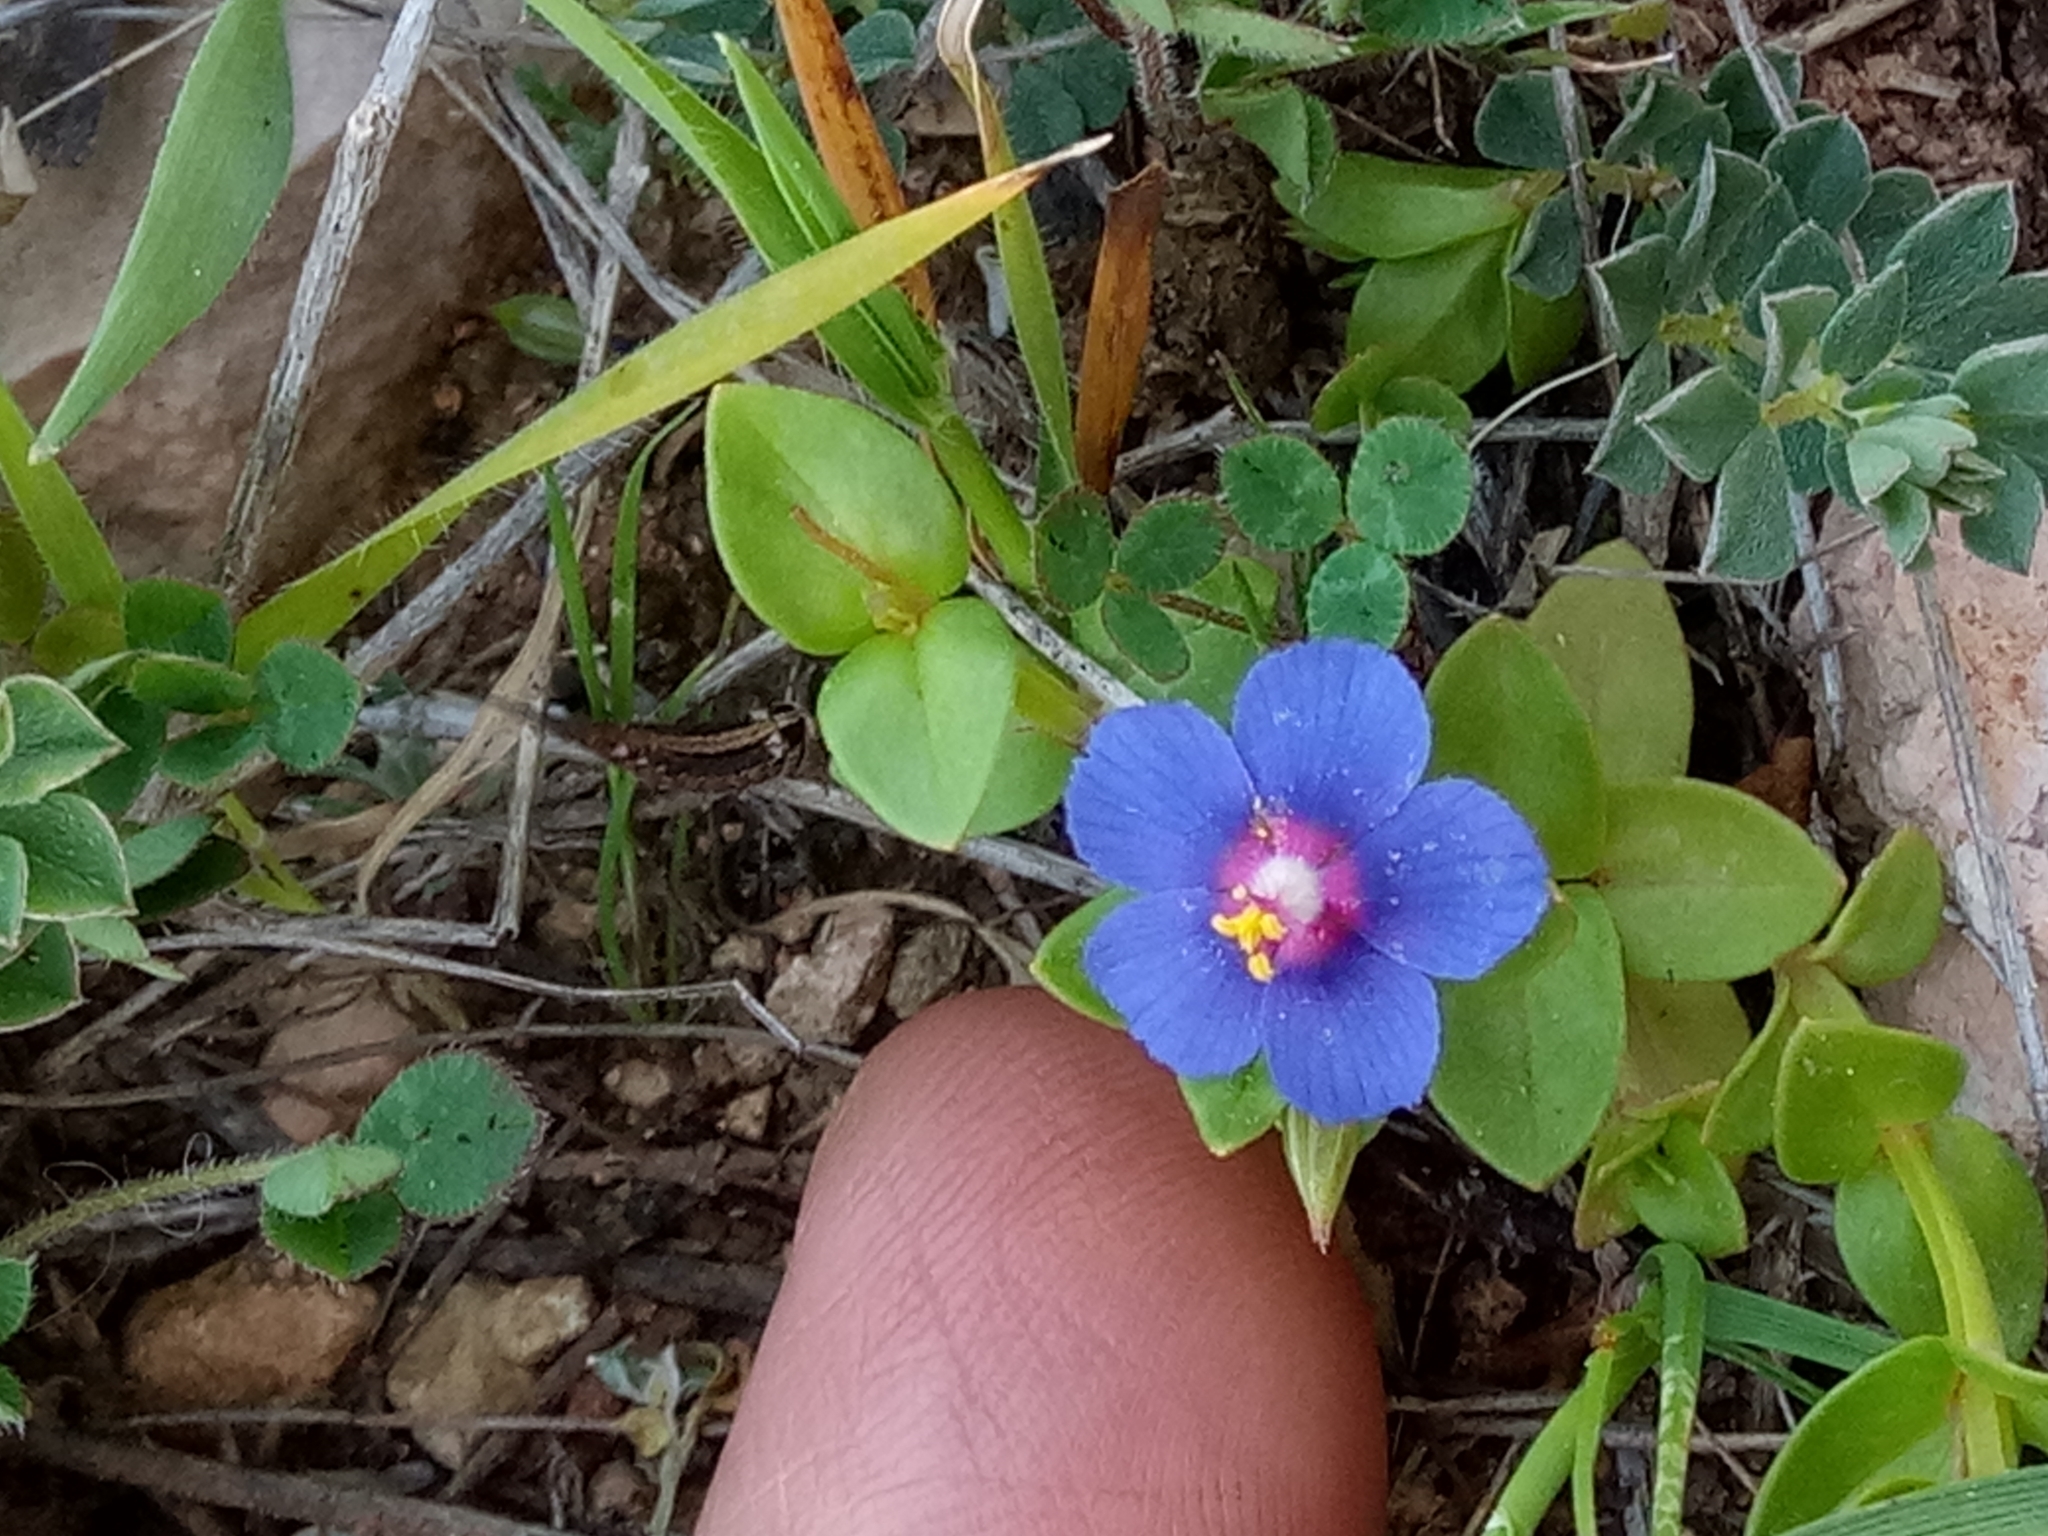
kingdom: Plantae
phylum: Tracheophyta
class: Magnoliopsida
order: Ericales
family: Primulaceae
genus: Lysimachia
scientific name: Lysimachia loeflingii
